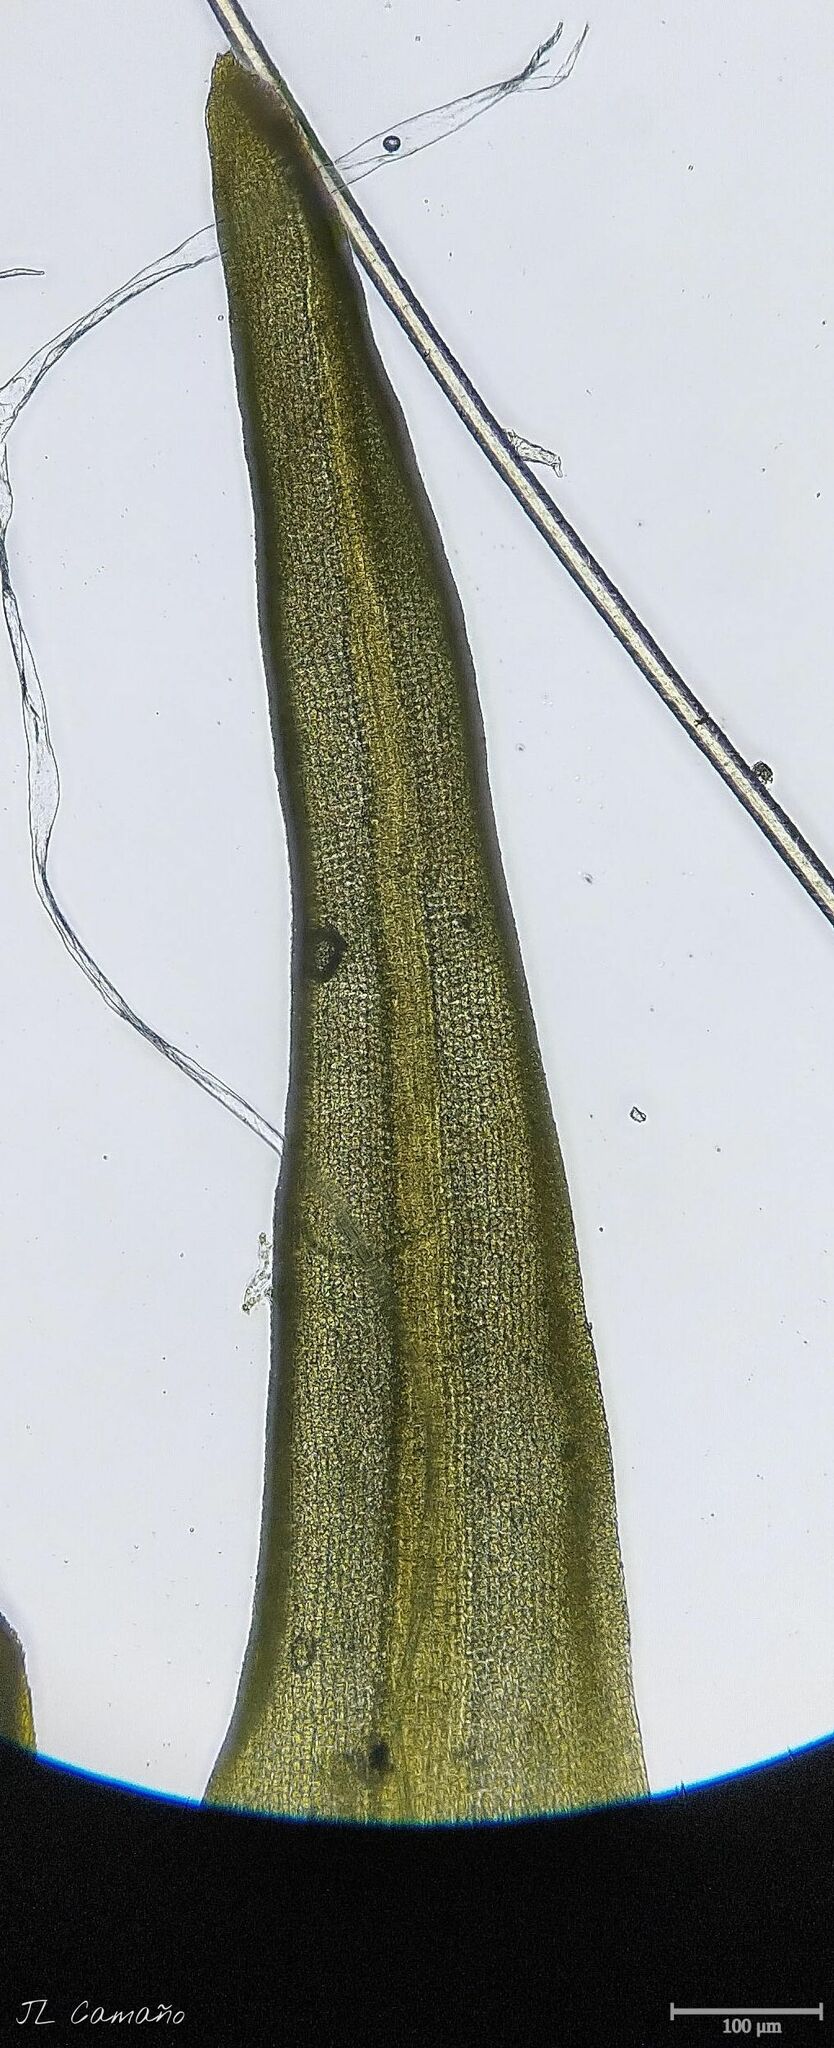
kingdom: Plantae
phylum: Bryophyta
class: Bryopsida
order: Pottiales
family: Pottiaceae
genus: Anoectangium
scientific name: Anoectangium aestivum
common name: Summer-moss
